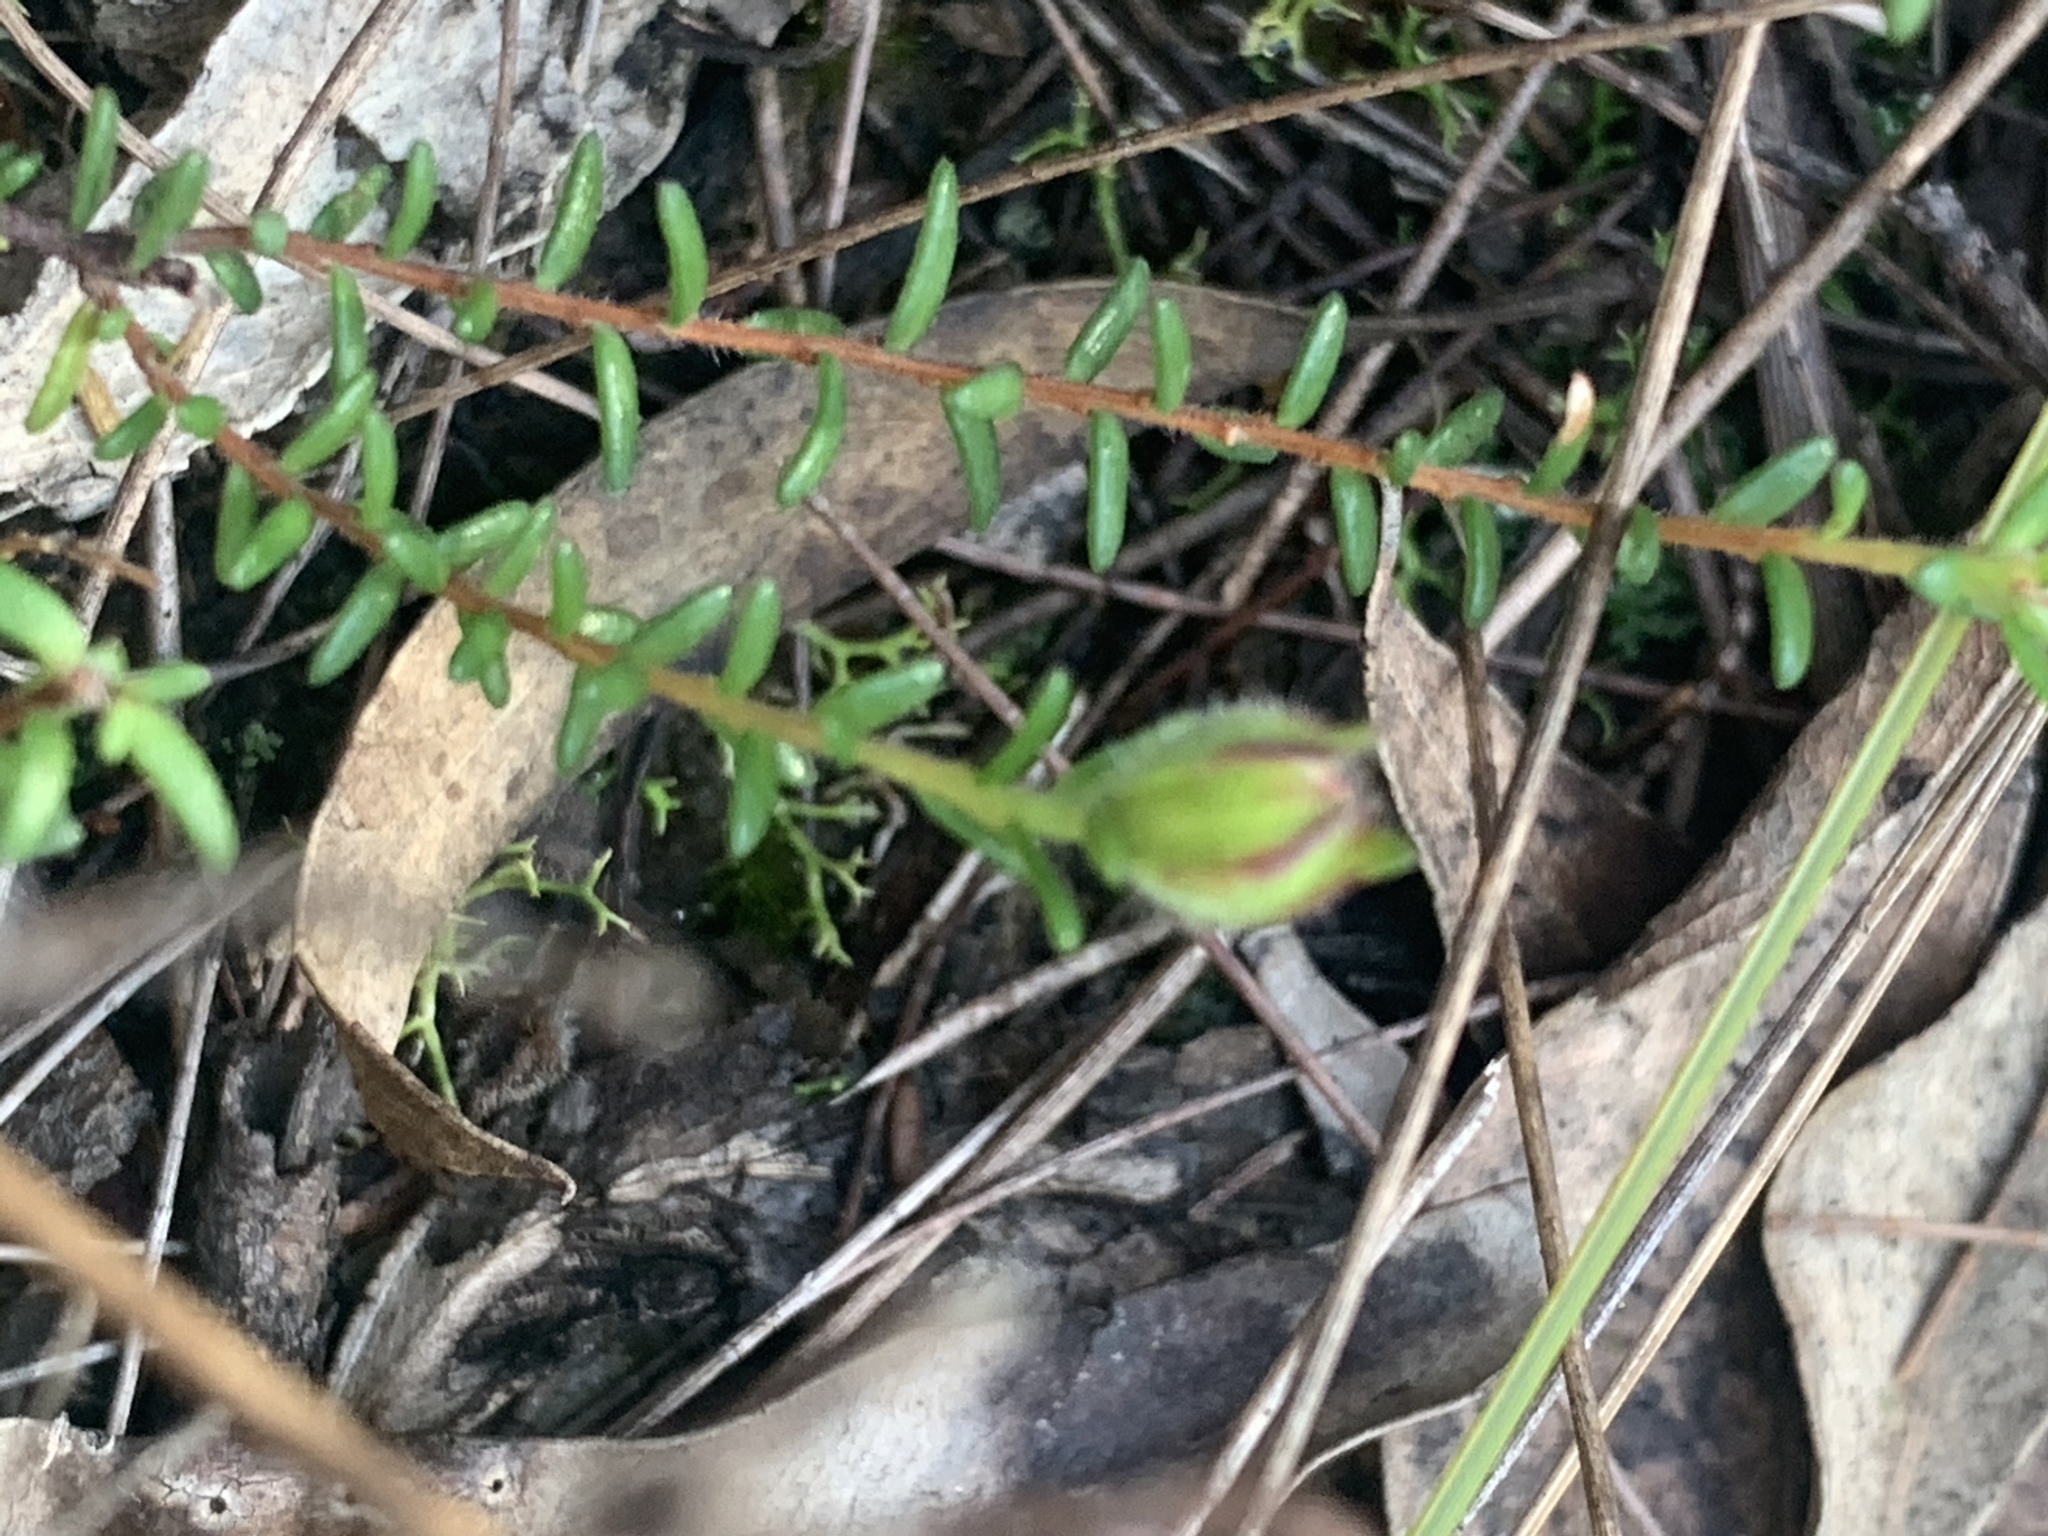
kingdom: Plantae
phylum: Tracheophyta
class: Magnoliopsida
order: Dilleniales
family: Dilleniaceae
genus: Hibbertia
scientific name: Hibbertia puberula
